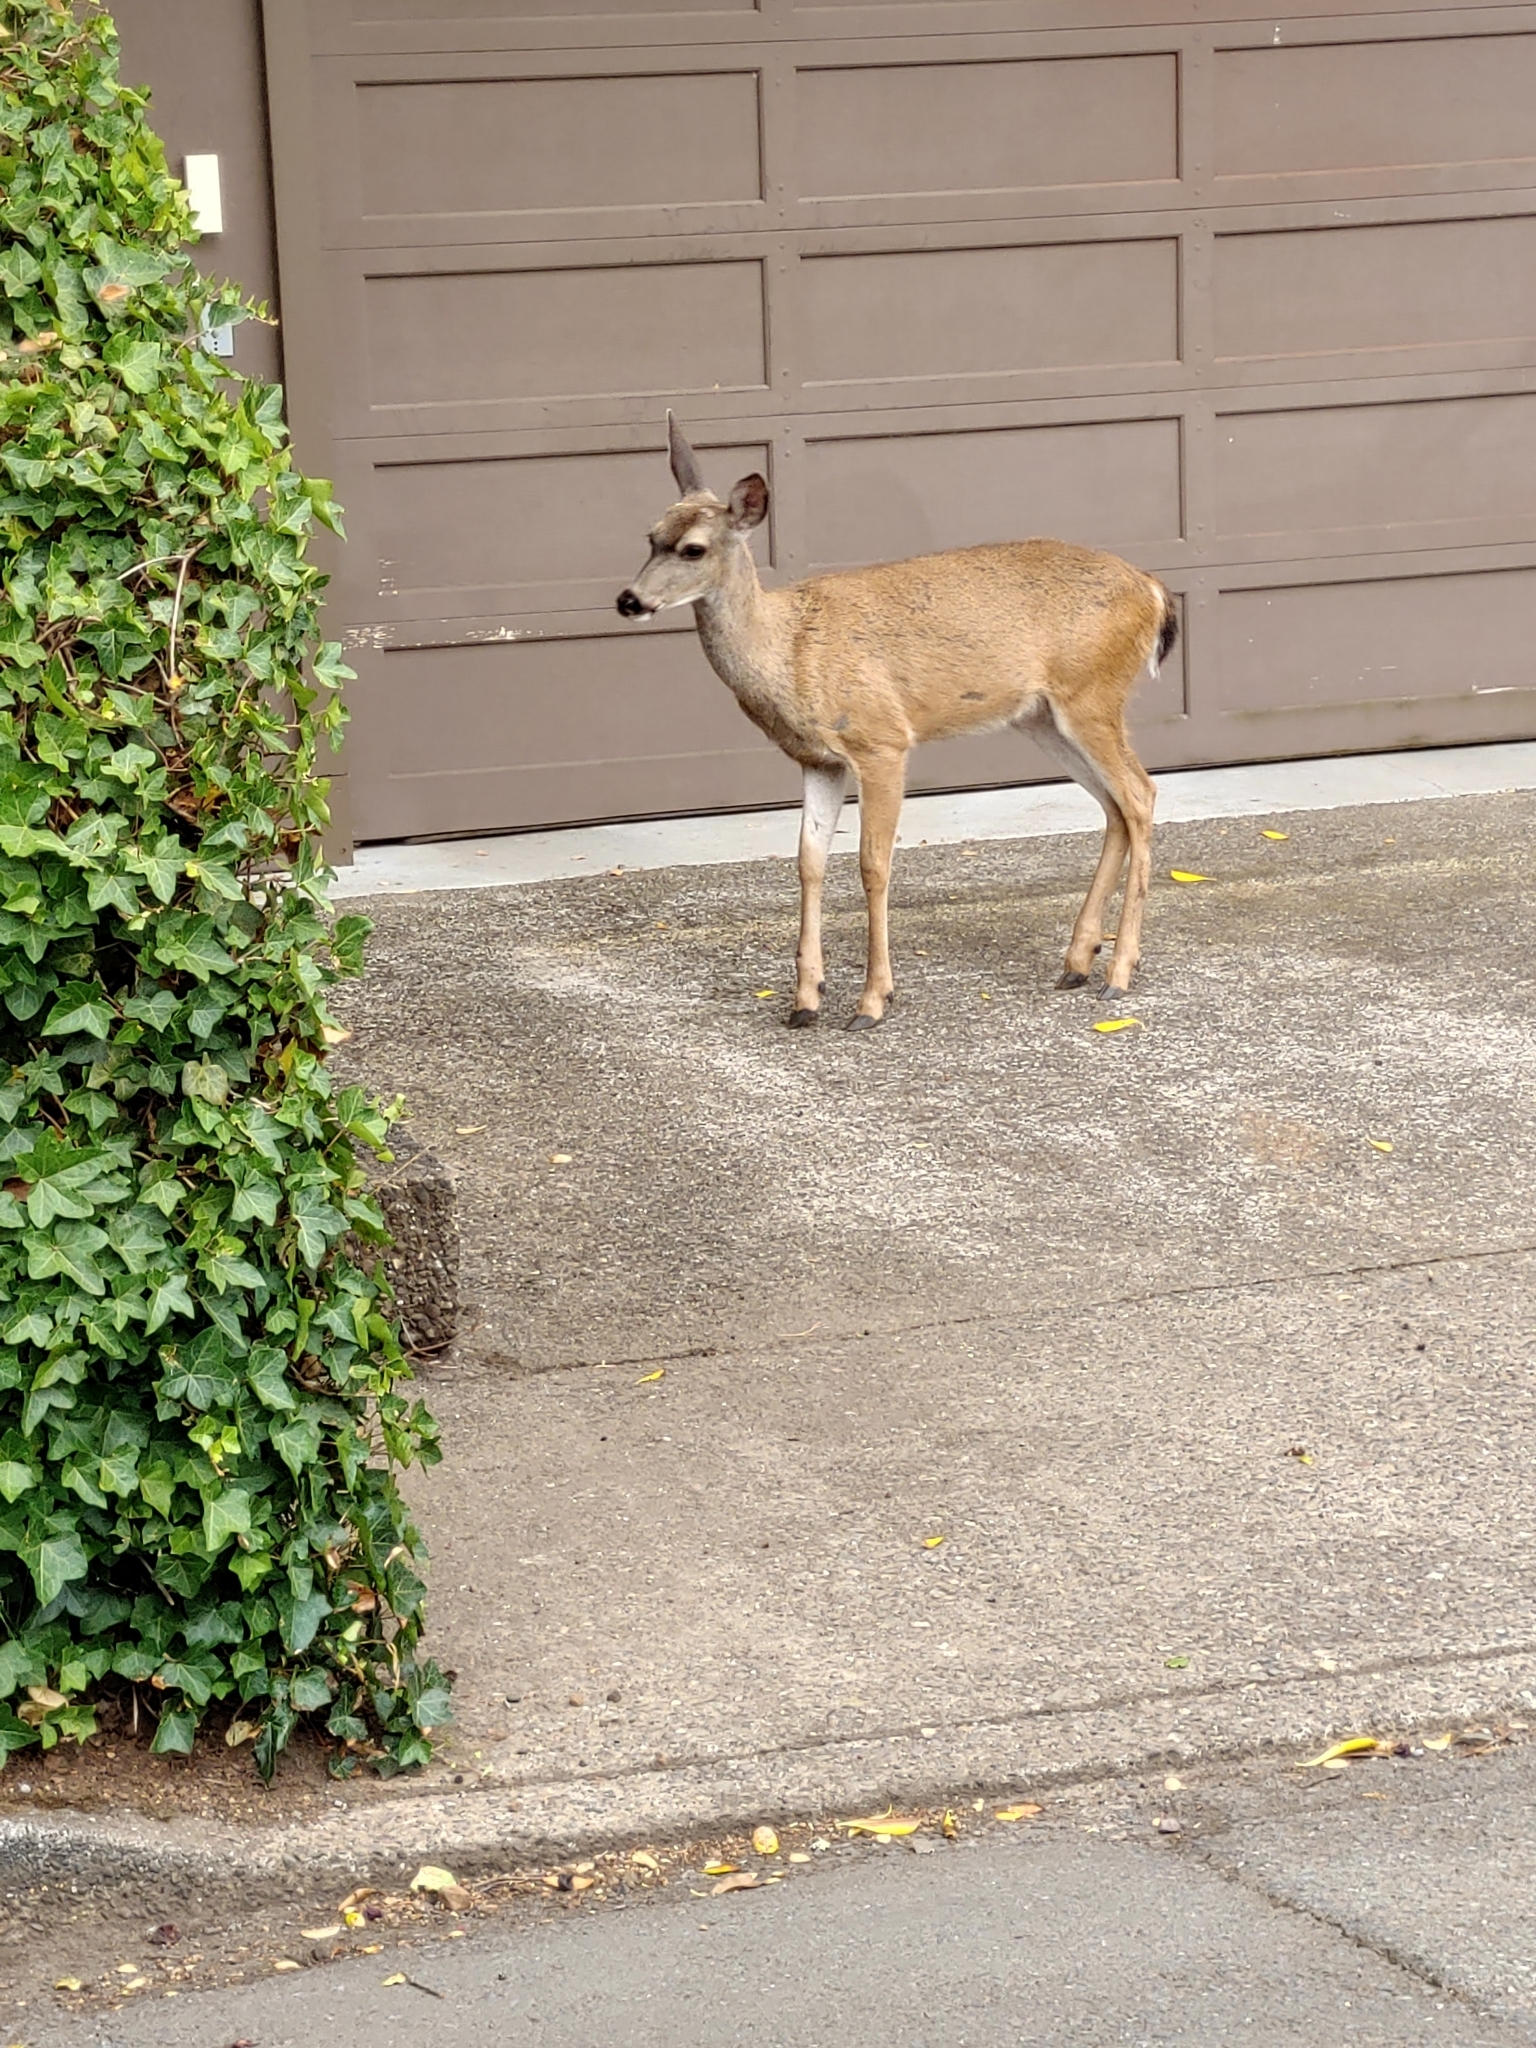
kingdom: Animalia
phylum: Chordata
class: Mammalia
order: Artiodactyla
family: Cervidae
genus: Odocoileus
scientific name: Odocoileus hemionus
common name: Mule deer
